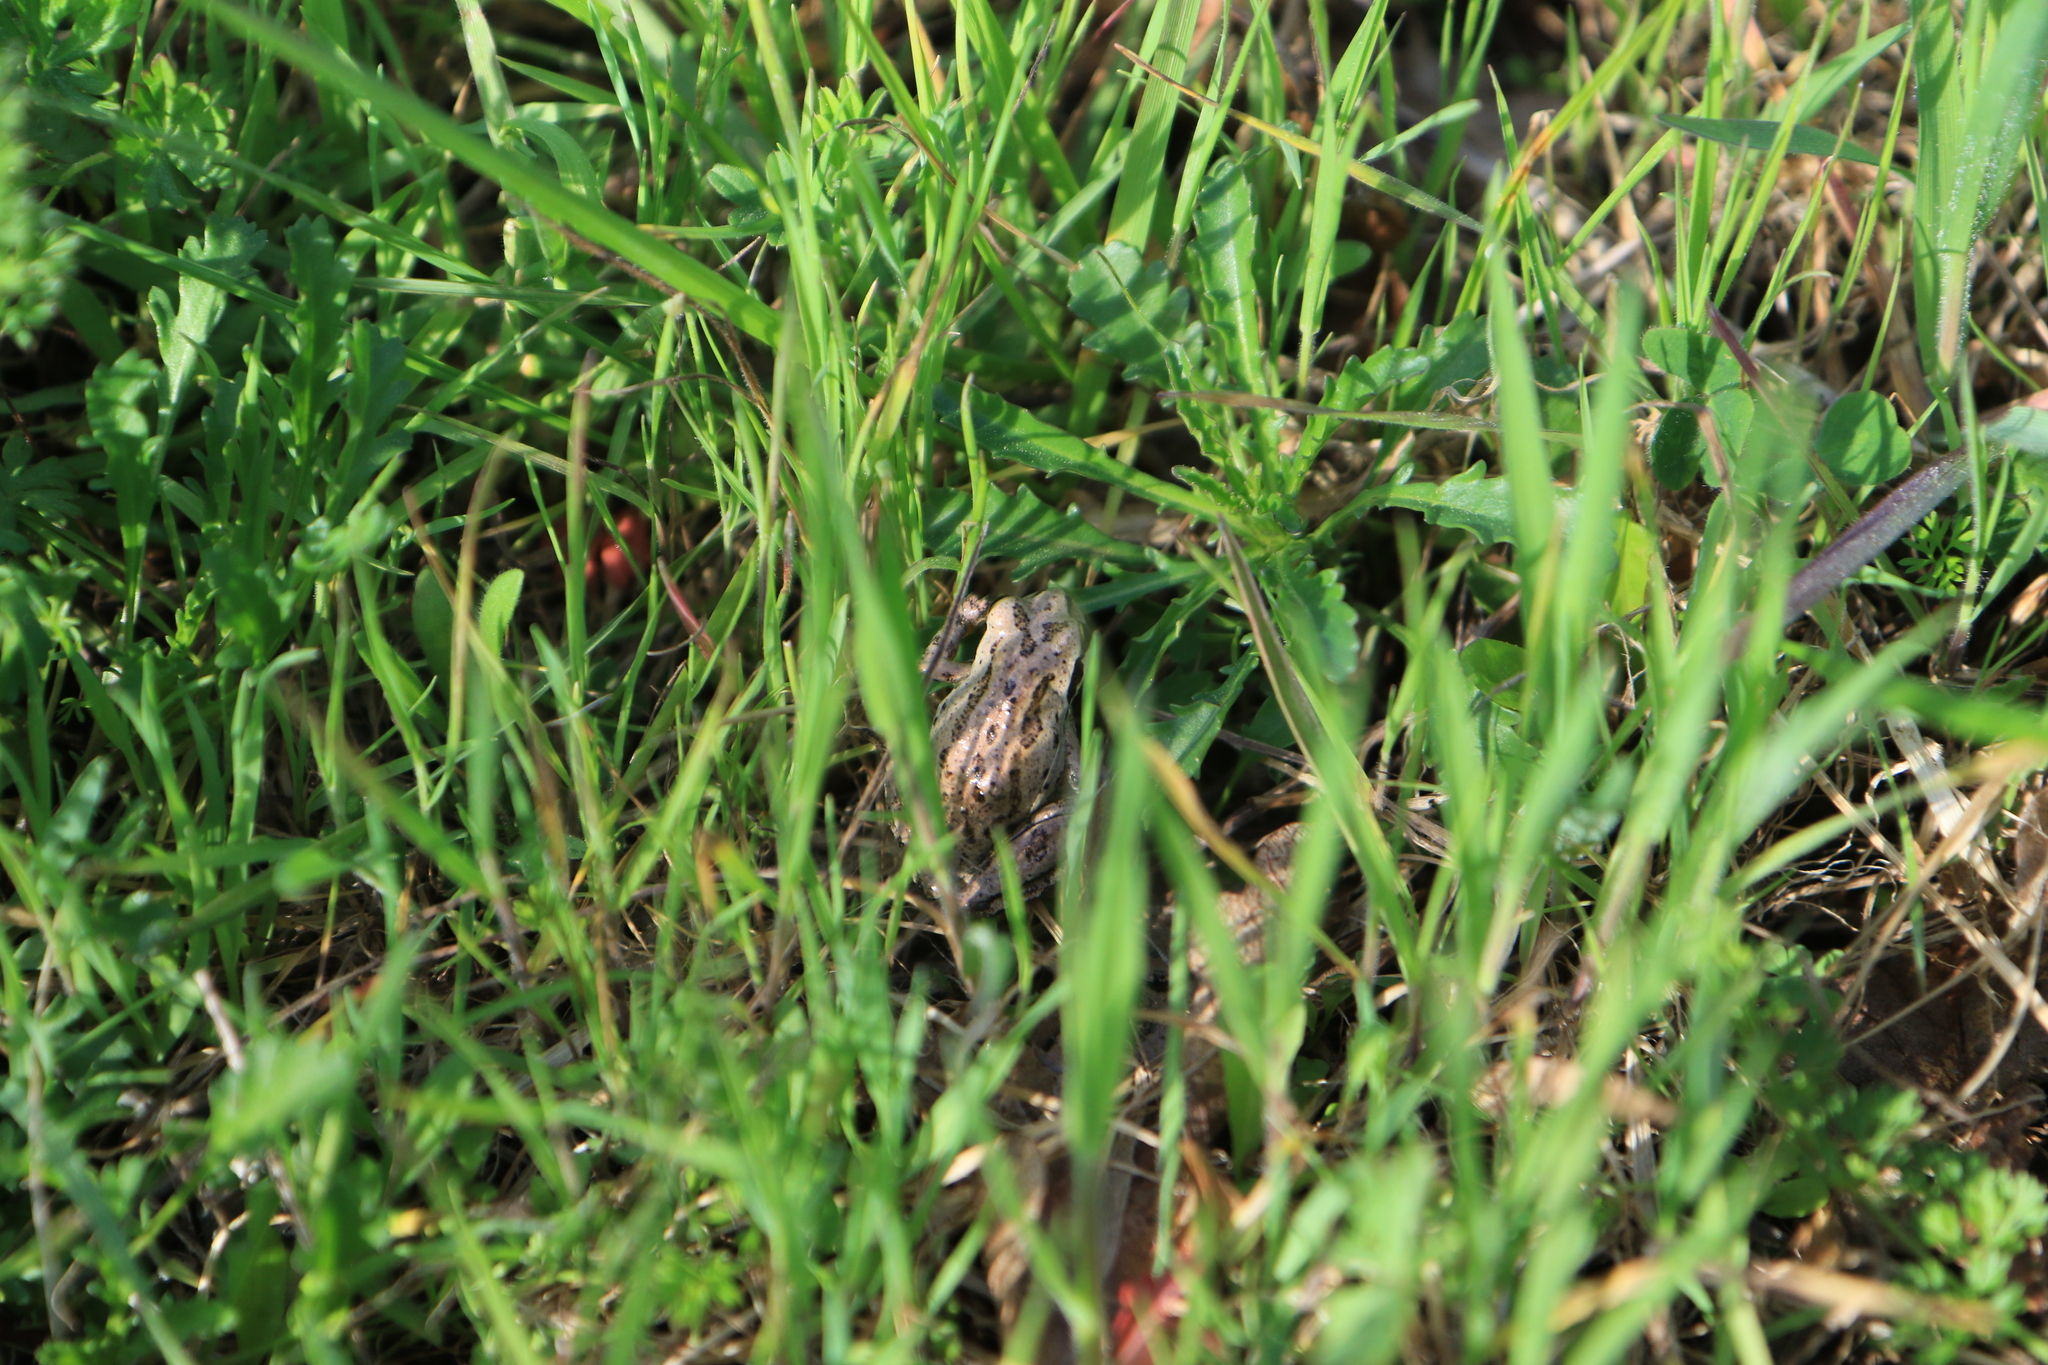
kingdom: Animalia
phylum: Chordata
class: Amphibia
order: Anura
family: Hylidae
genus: Pseudacris
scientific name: Pseudacris regilla
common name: Pacific chorus frog
